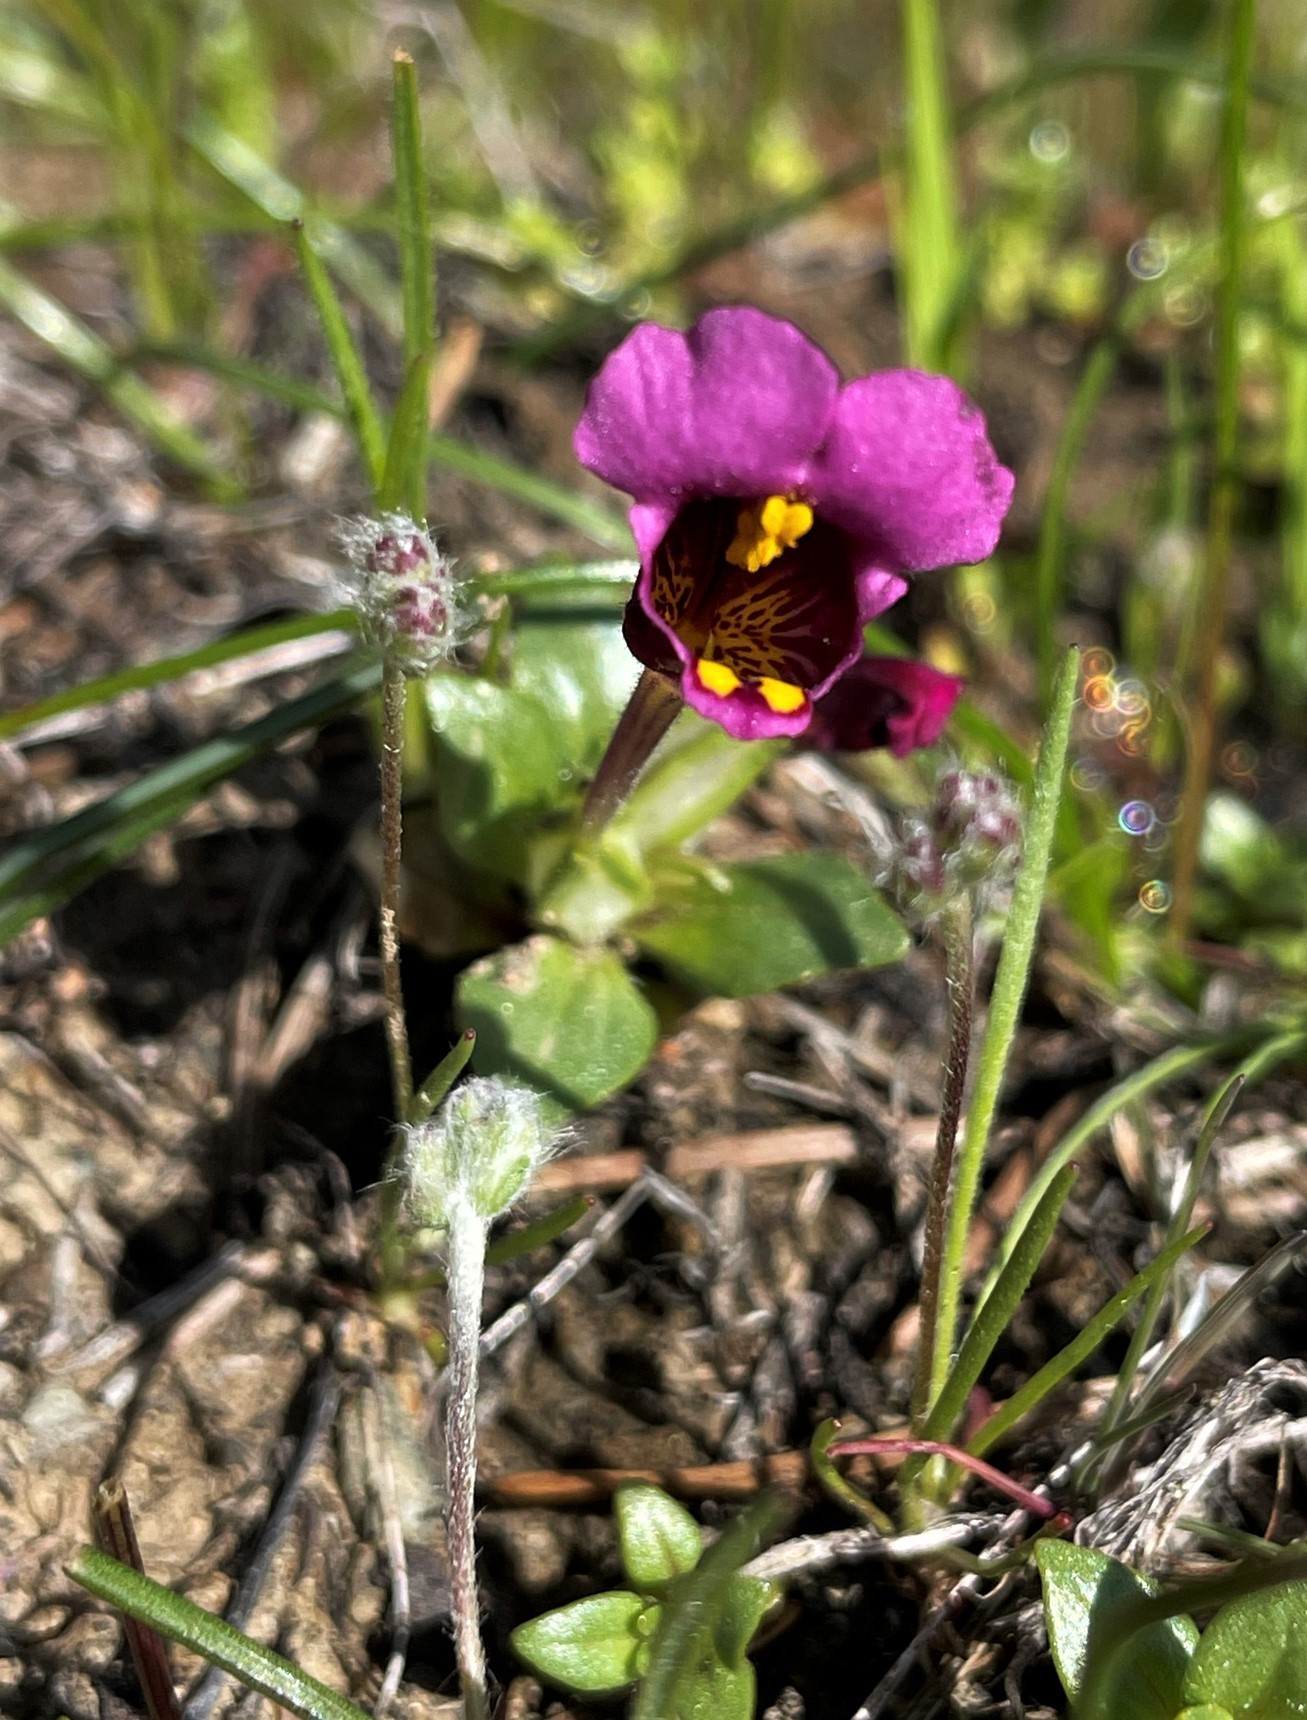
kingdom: Plantae
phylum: Tracheophyta
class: Magnoliopsida
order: Lamiales
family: Phrymaceae
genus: Diplacus
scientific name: Diplacus douglasii
